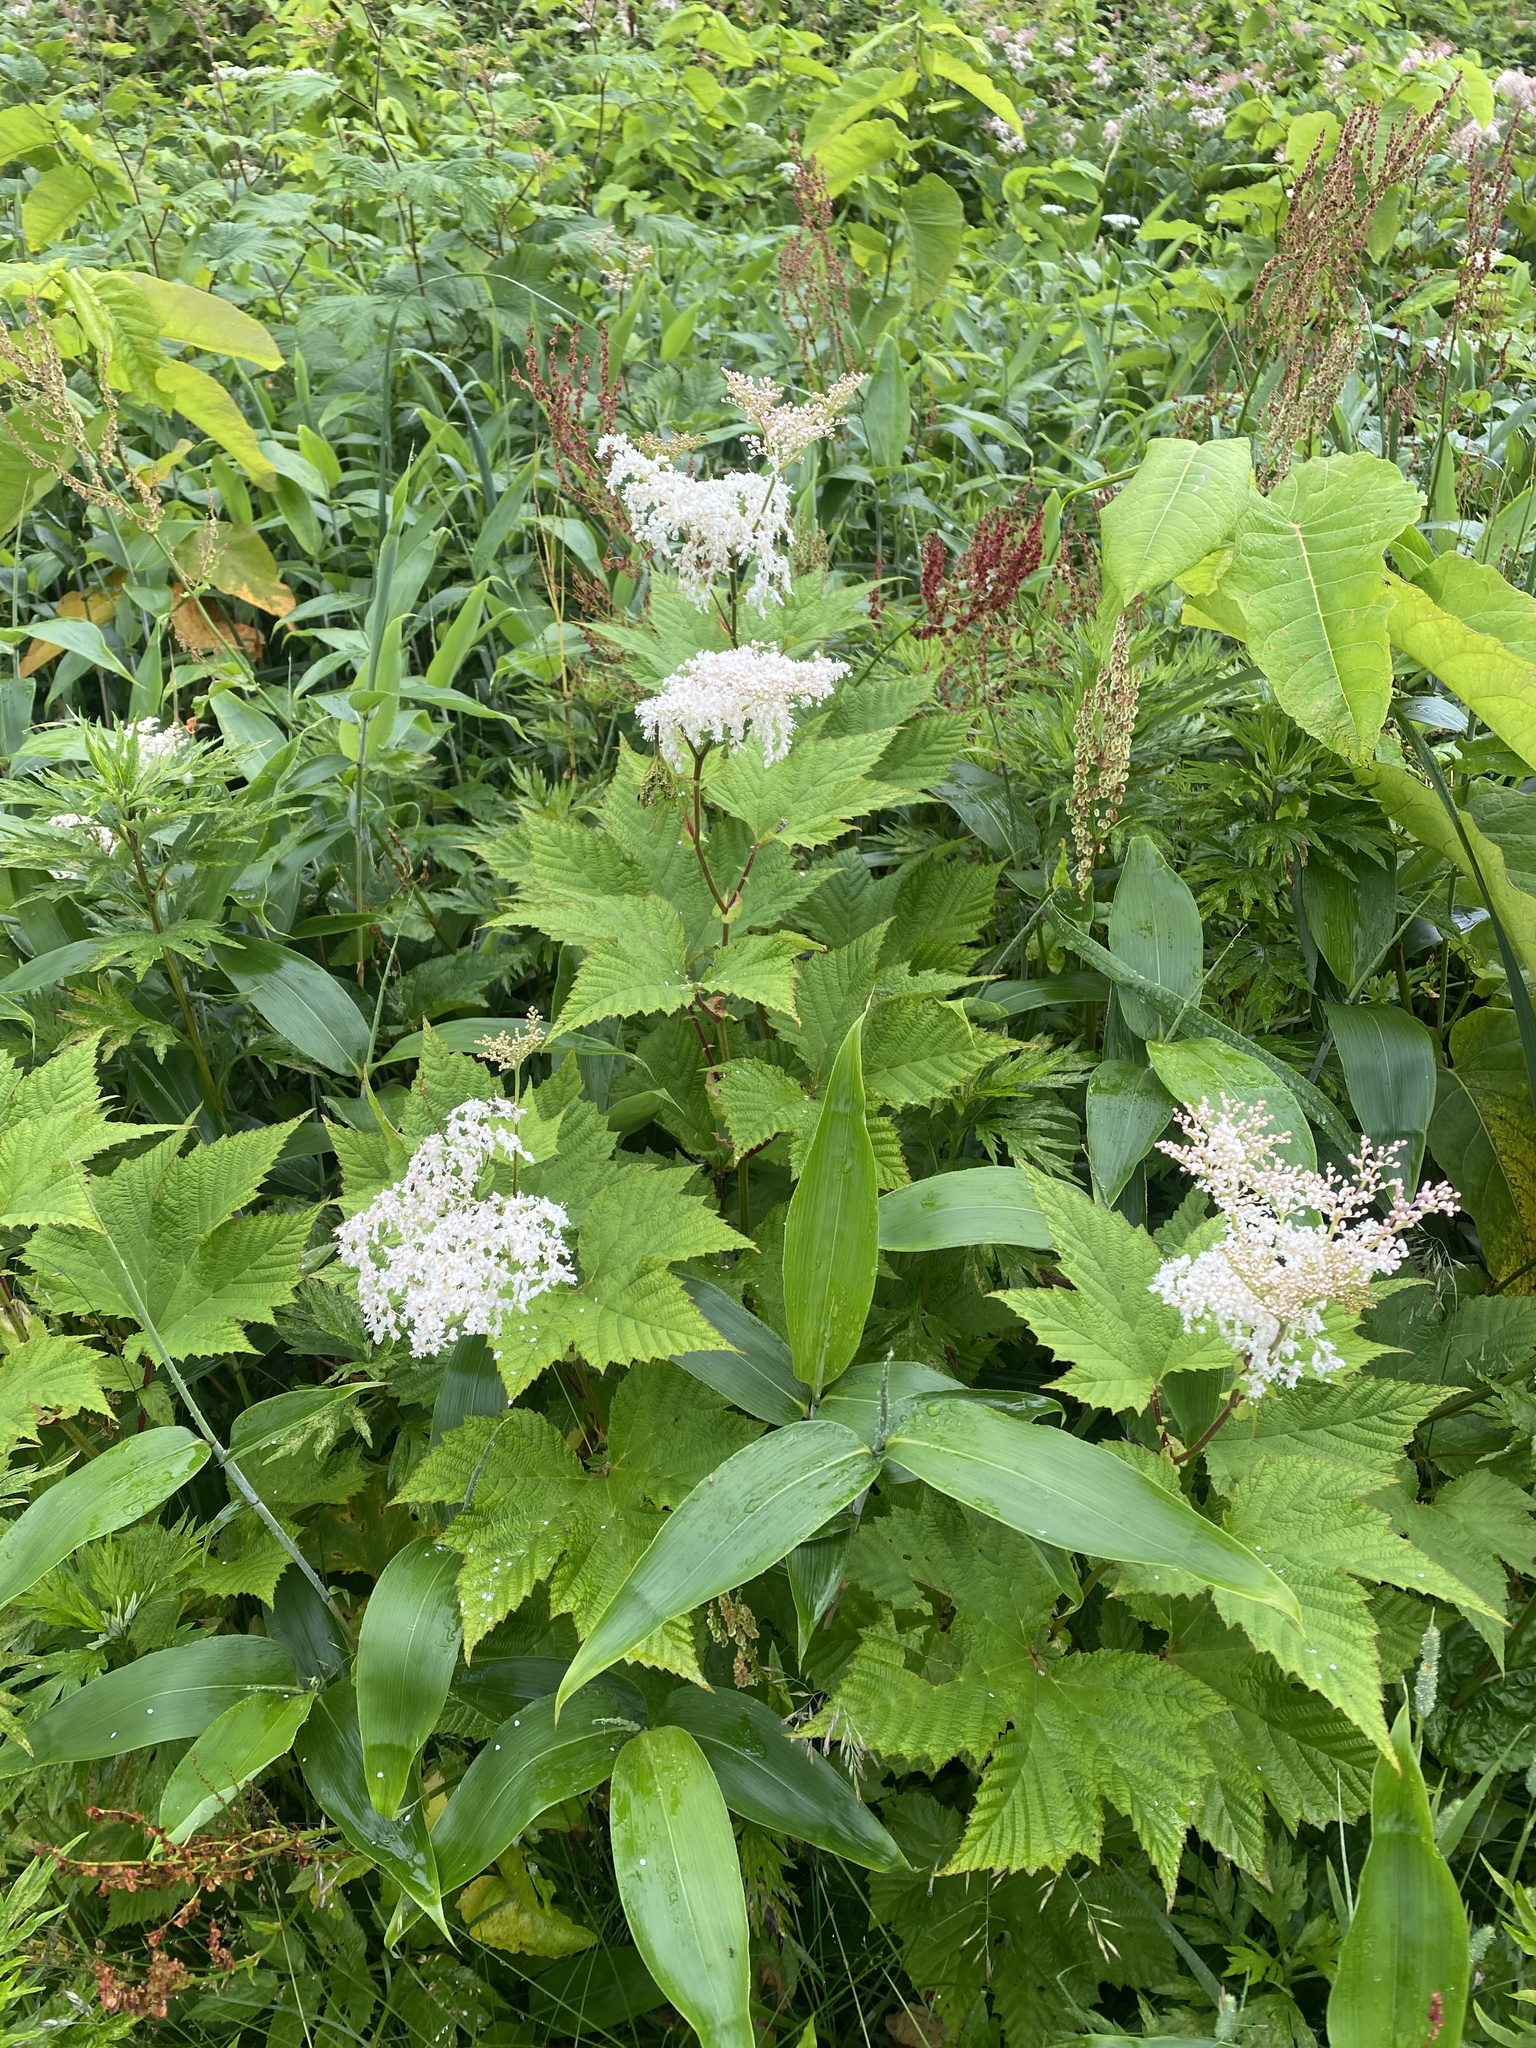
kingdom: Plantae
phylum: Tracheophyta
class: Magnoliopsida
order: Rosales
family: Rosaceae
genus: Filipendula
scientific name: Filipendula camtschatica
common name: Giant meadowsweet
